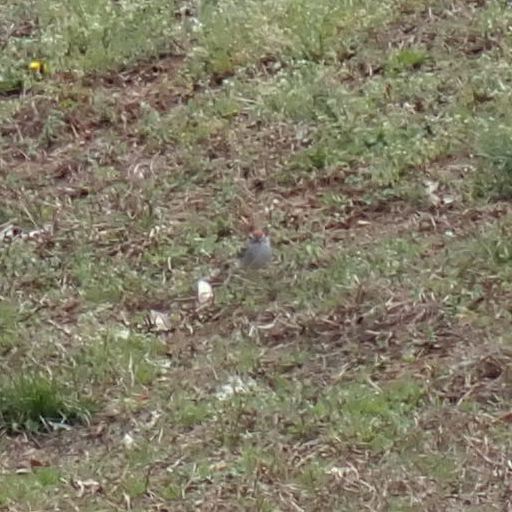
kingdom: Animalia
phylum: Chordata
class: Aves
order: Passeriformes
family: Passerellidae
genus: Spizella
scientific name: Spizella passerina
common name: Chipping sparrow
